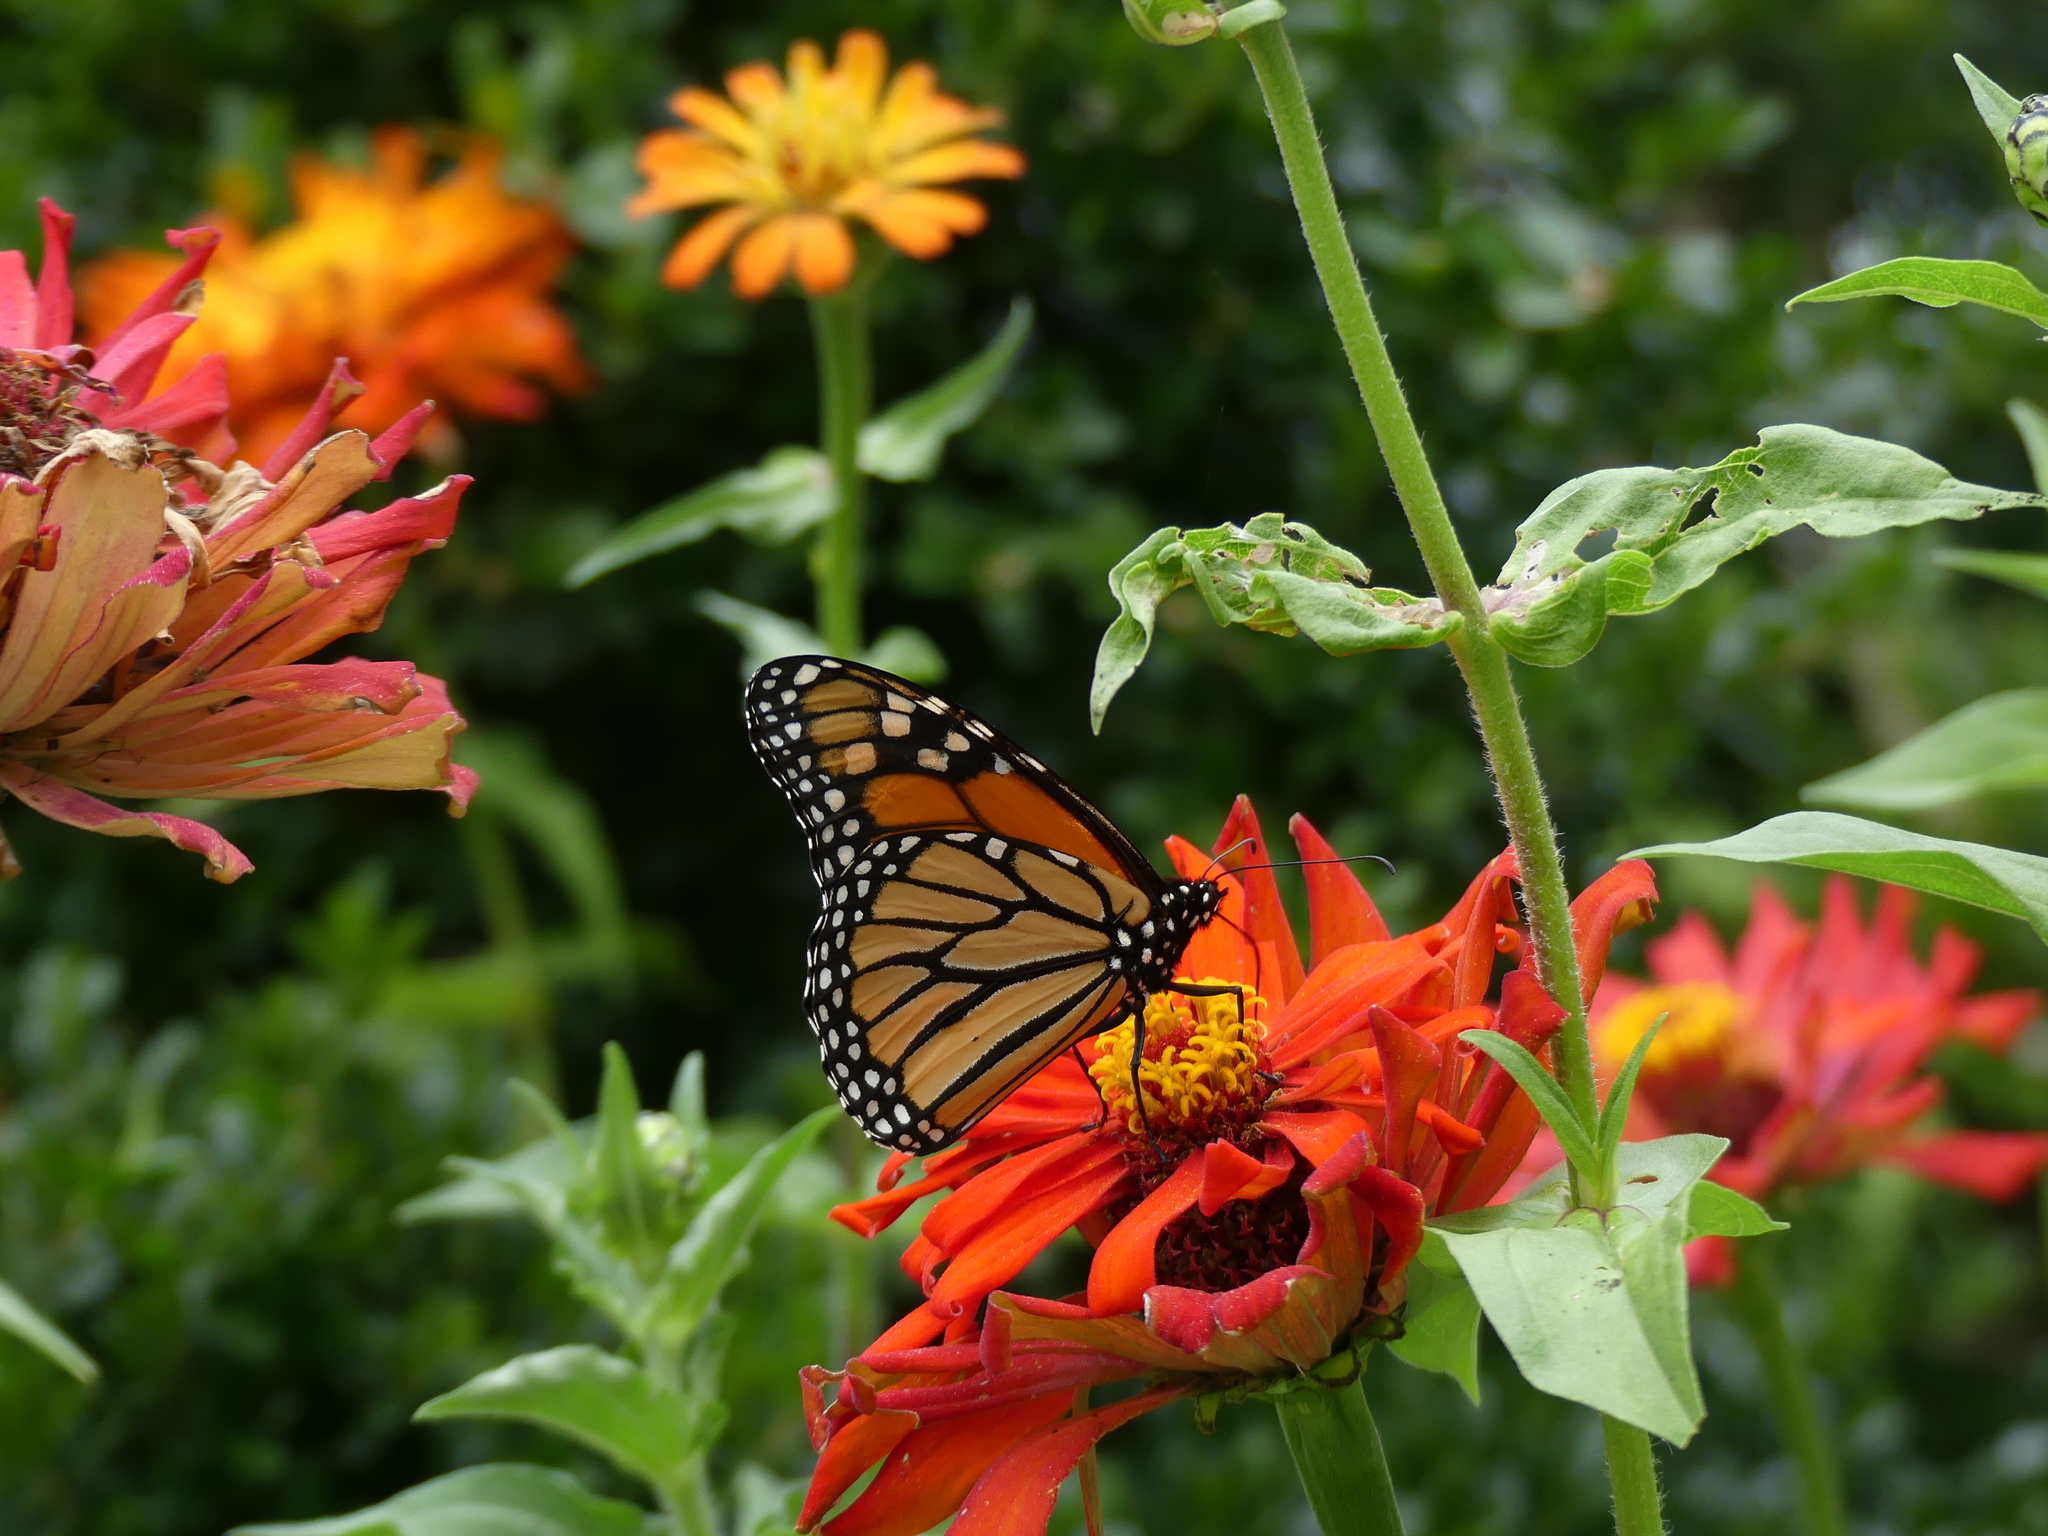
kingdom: Animalia
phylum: Arthropoda
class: Insecta
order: Lepidoptera
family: Nymphalidae
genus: Danaus
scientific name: Danaus plexippus
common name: Monarch
